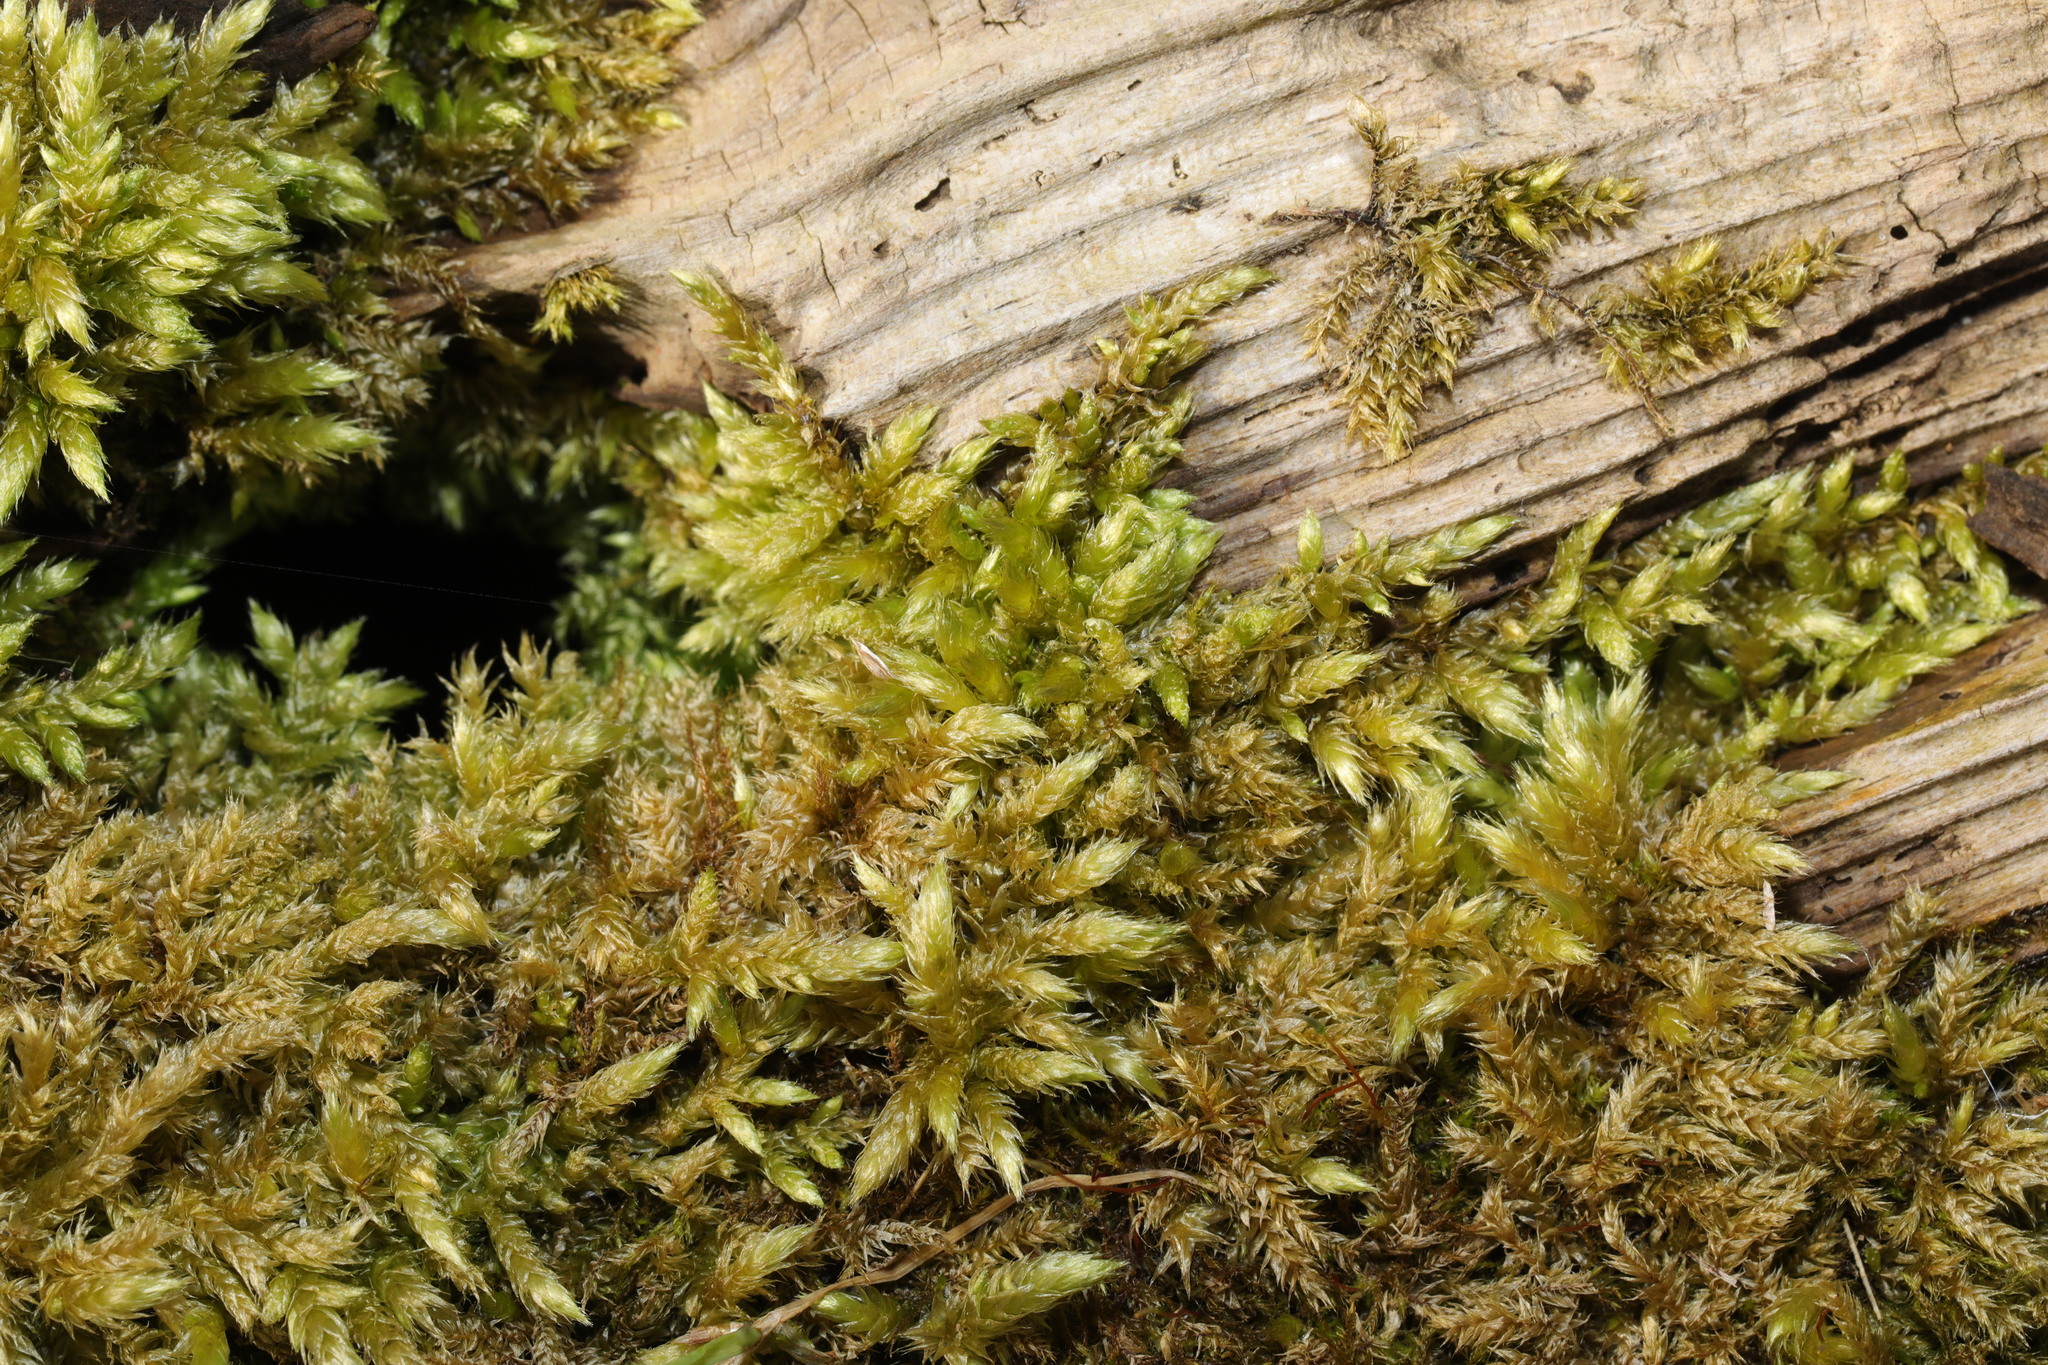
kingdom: Plantae
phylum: Bryophyta
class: Bryopsida
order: Hypnales
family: Hypnaceae
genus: Hypnum
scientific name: Hypnum cupressiforme
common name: Cypress-leaved plait-moss
